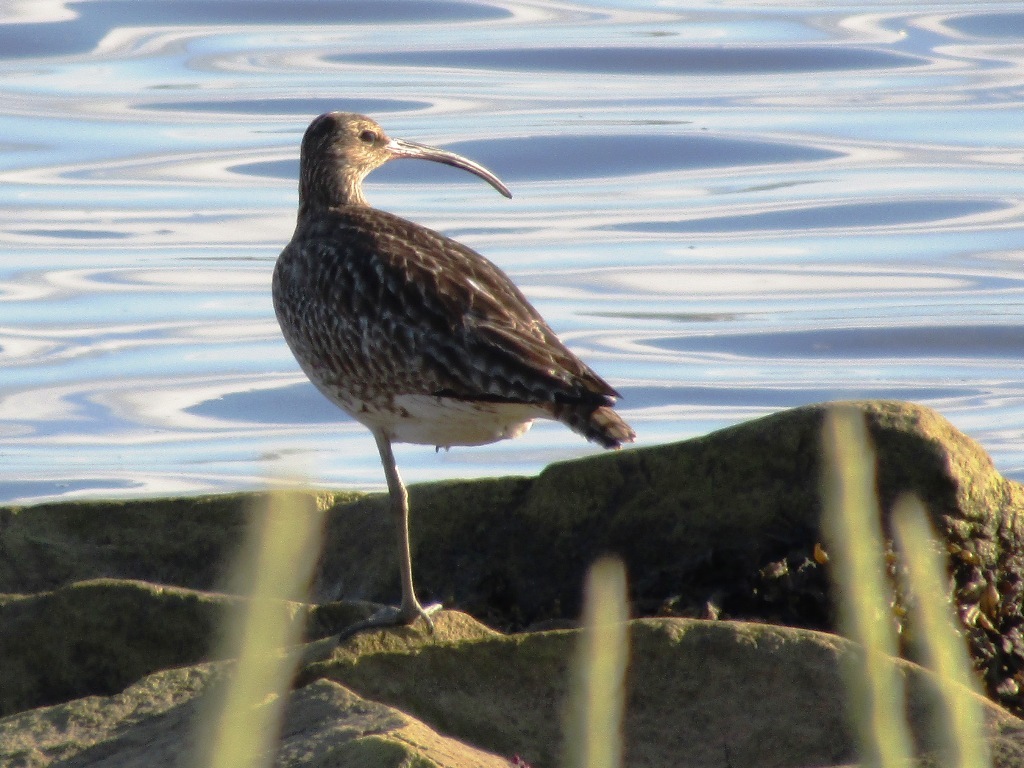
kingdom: Animalia
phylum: Chordata
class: Aves
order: Charadriiformes
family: Scolopacidae
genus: Numenius
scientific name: Numenius phaeopus
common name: Whimbrel
